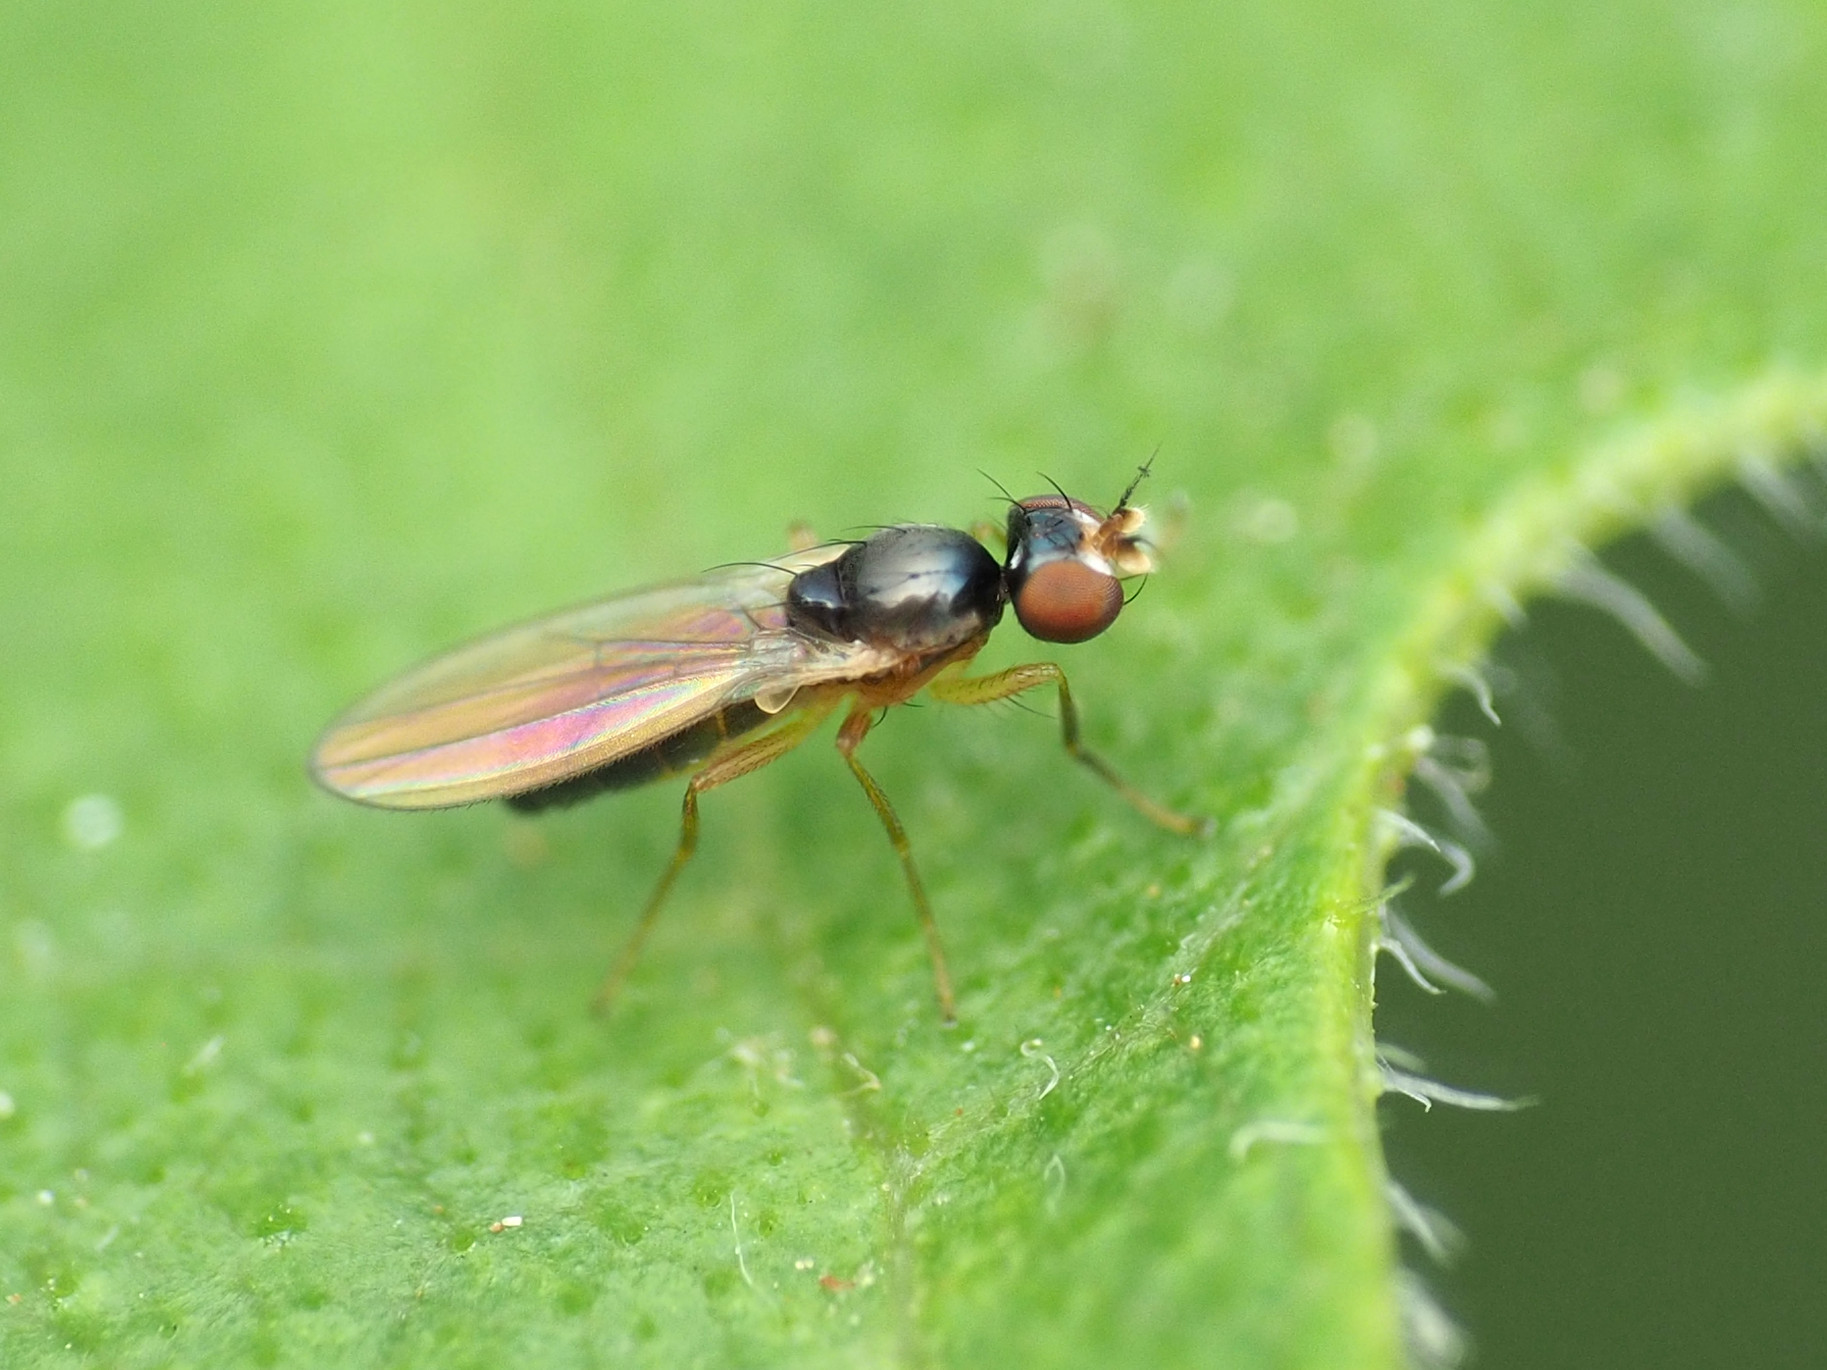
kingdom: Animalia
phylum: Arthropoda
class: Insecta
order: Diptera
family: Anthomyzidae
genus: Mumetopia
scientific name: Mumetopia occipitalis
